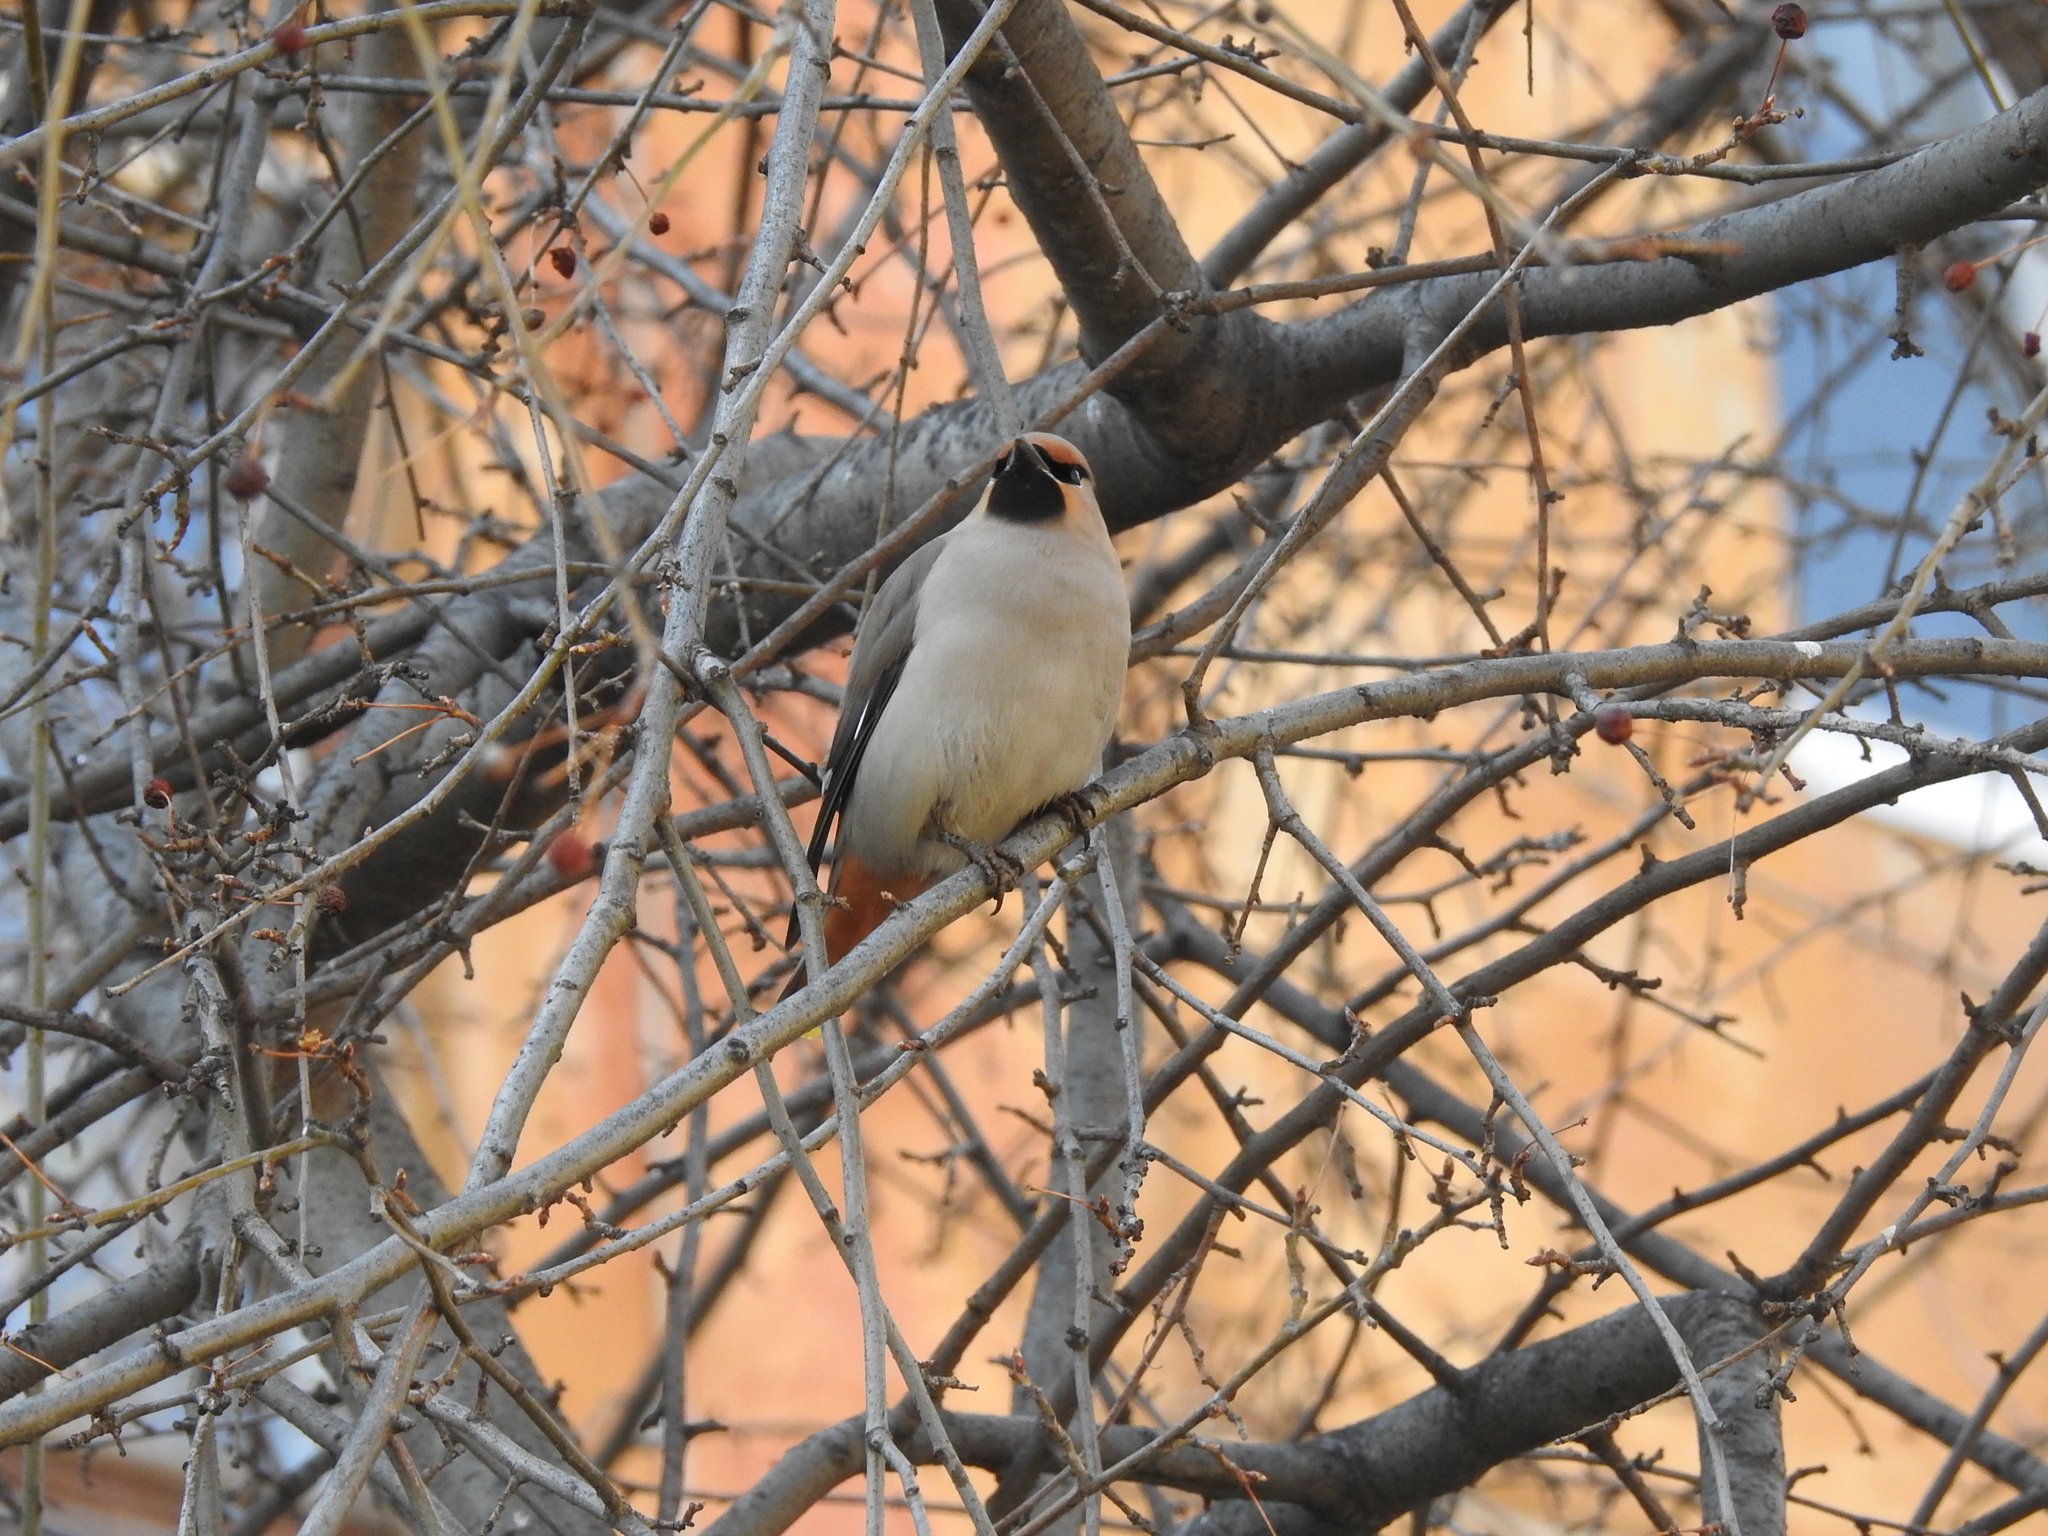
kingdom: Animalia
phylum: Chordata
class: Aves
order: Passeriformes
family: Bombycillidae
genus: Bombycilla
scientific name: Bombycilla garrulus
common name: Bohemian waxwing
